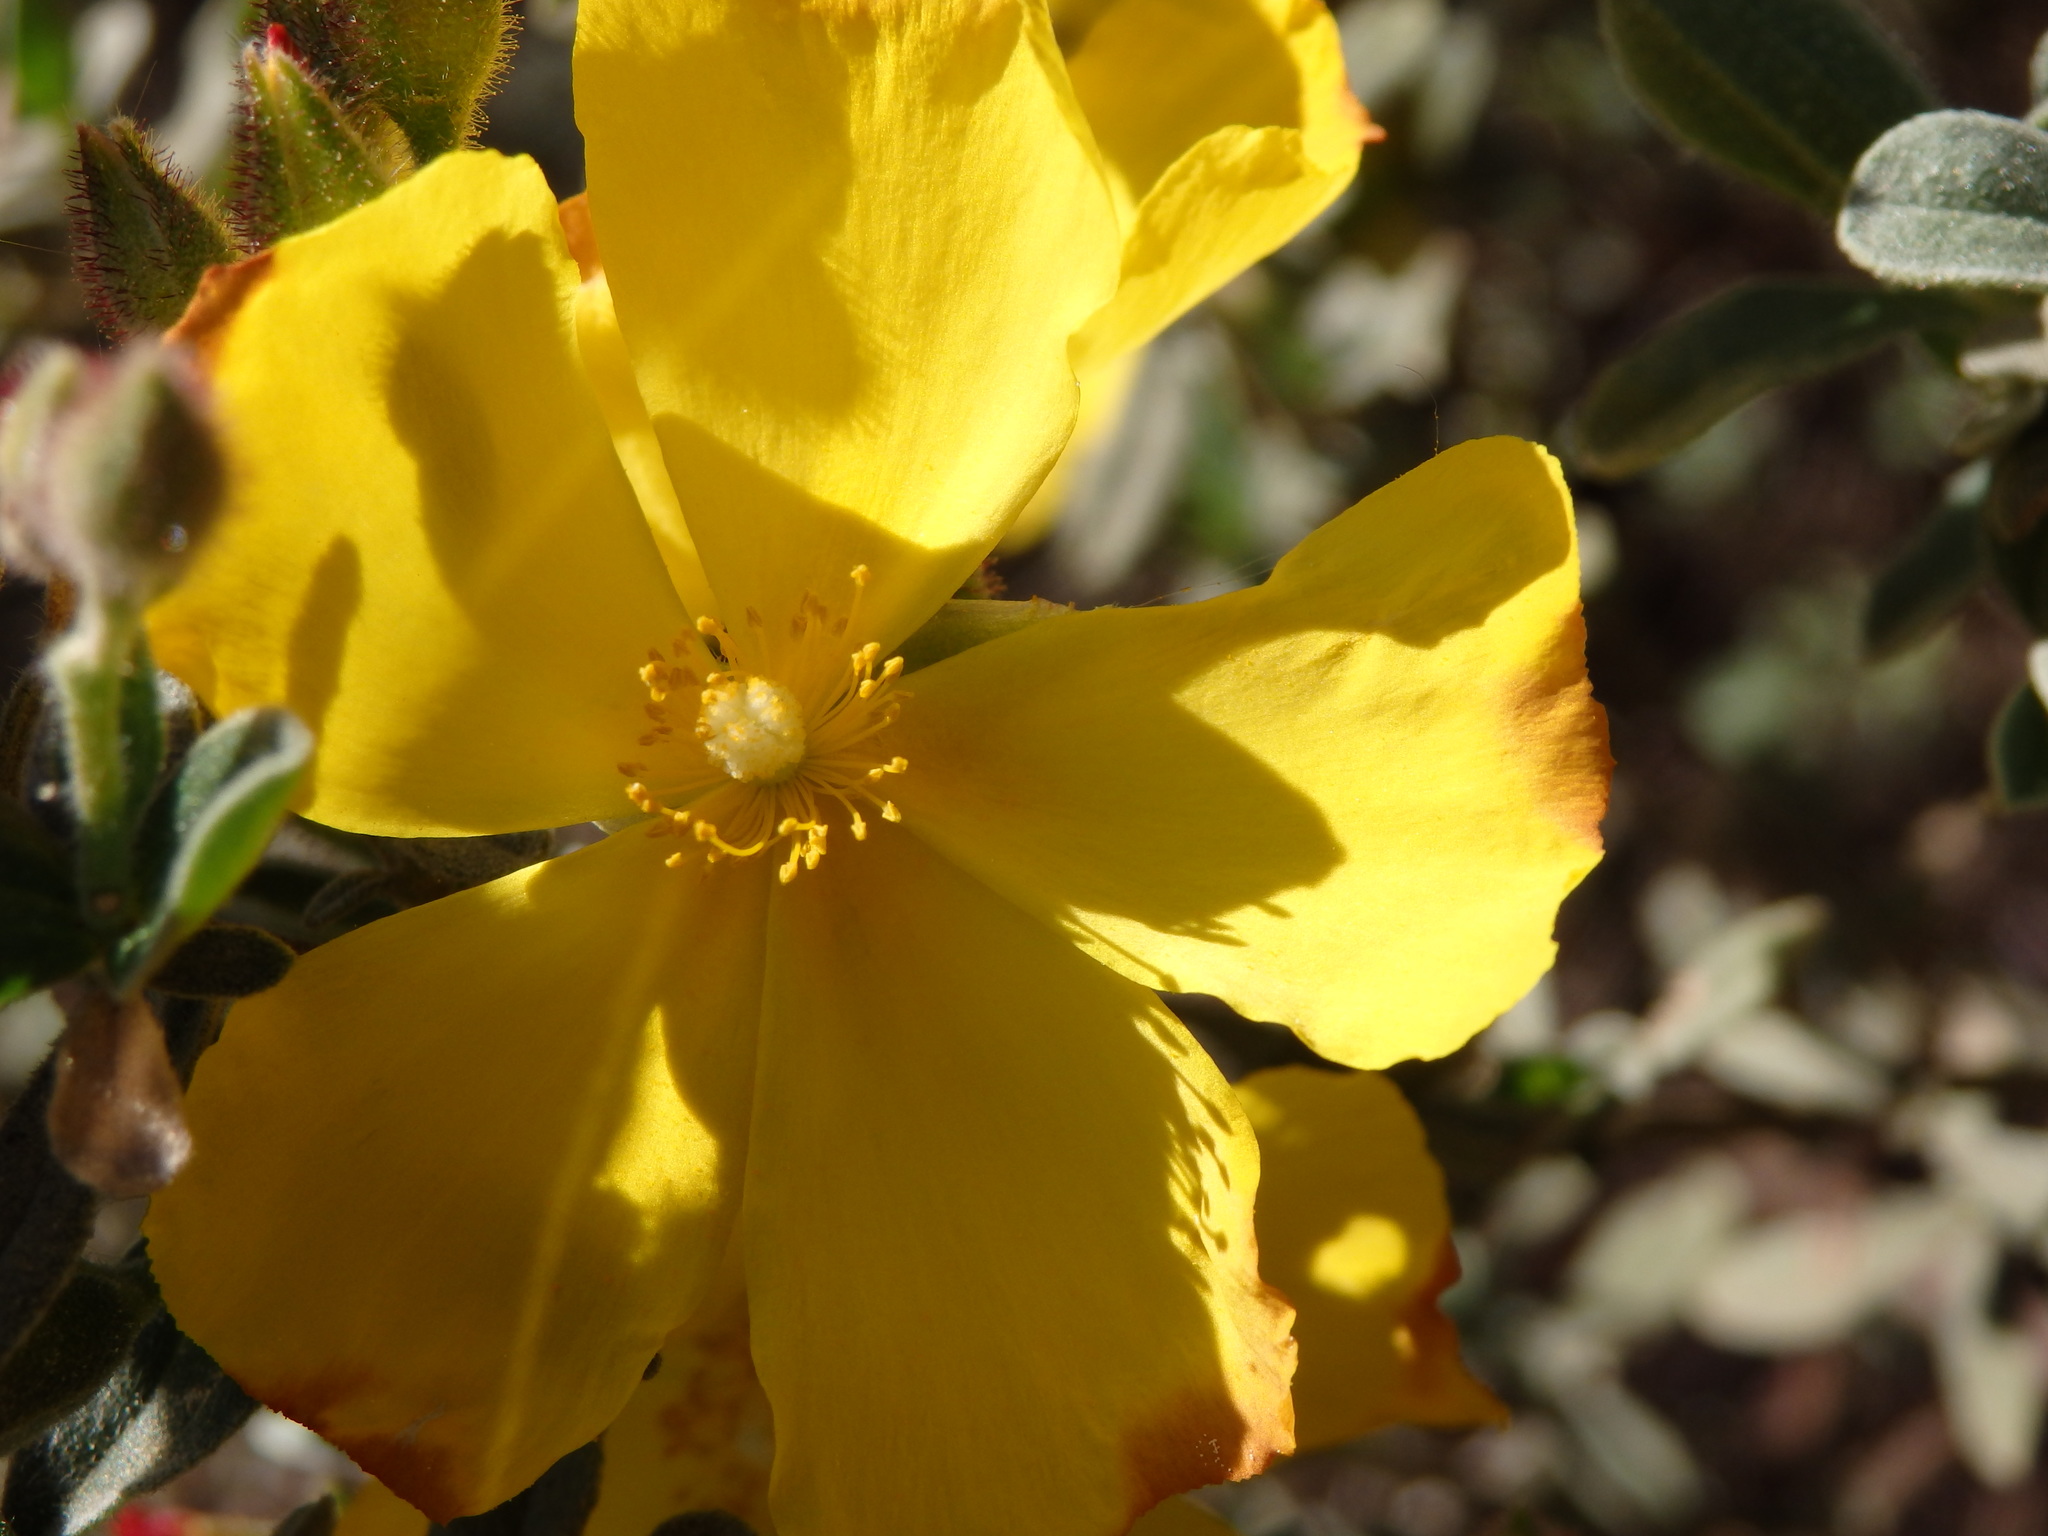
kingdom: Plantae
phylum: Tracheophyta
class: Magnoliopsida
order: Malvales
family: Cistaceae
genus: Halimium
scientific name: Halimium lasianthum
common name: Lisbon false sun-rose
